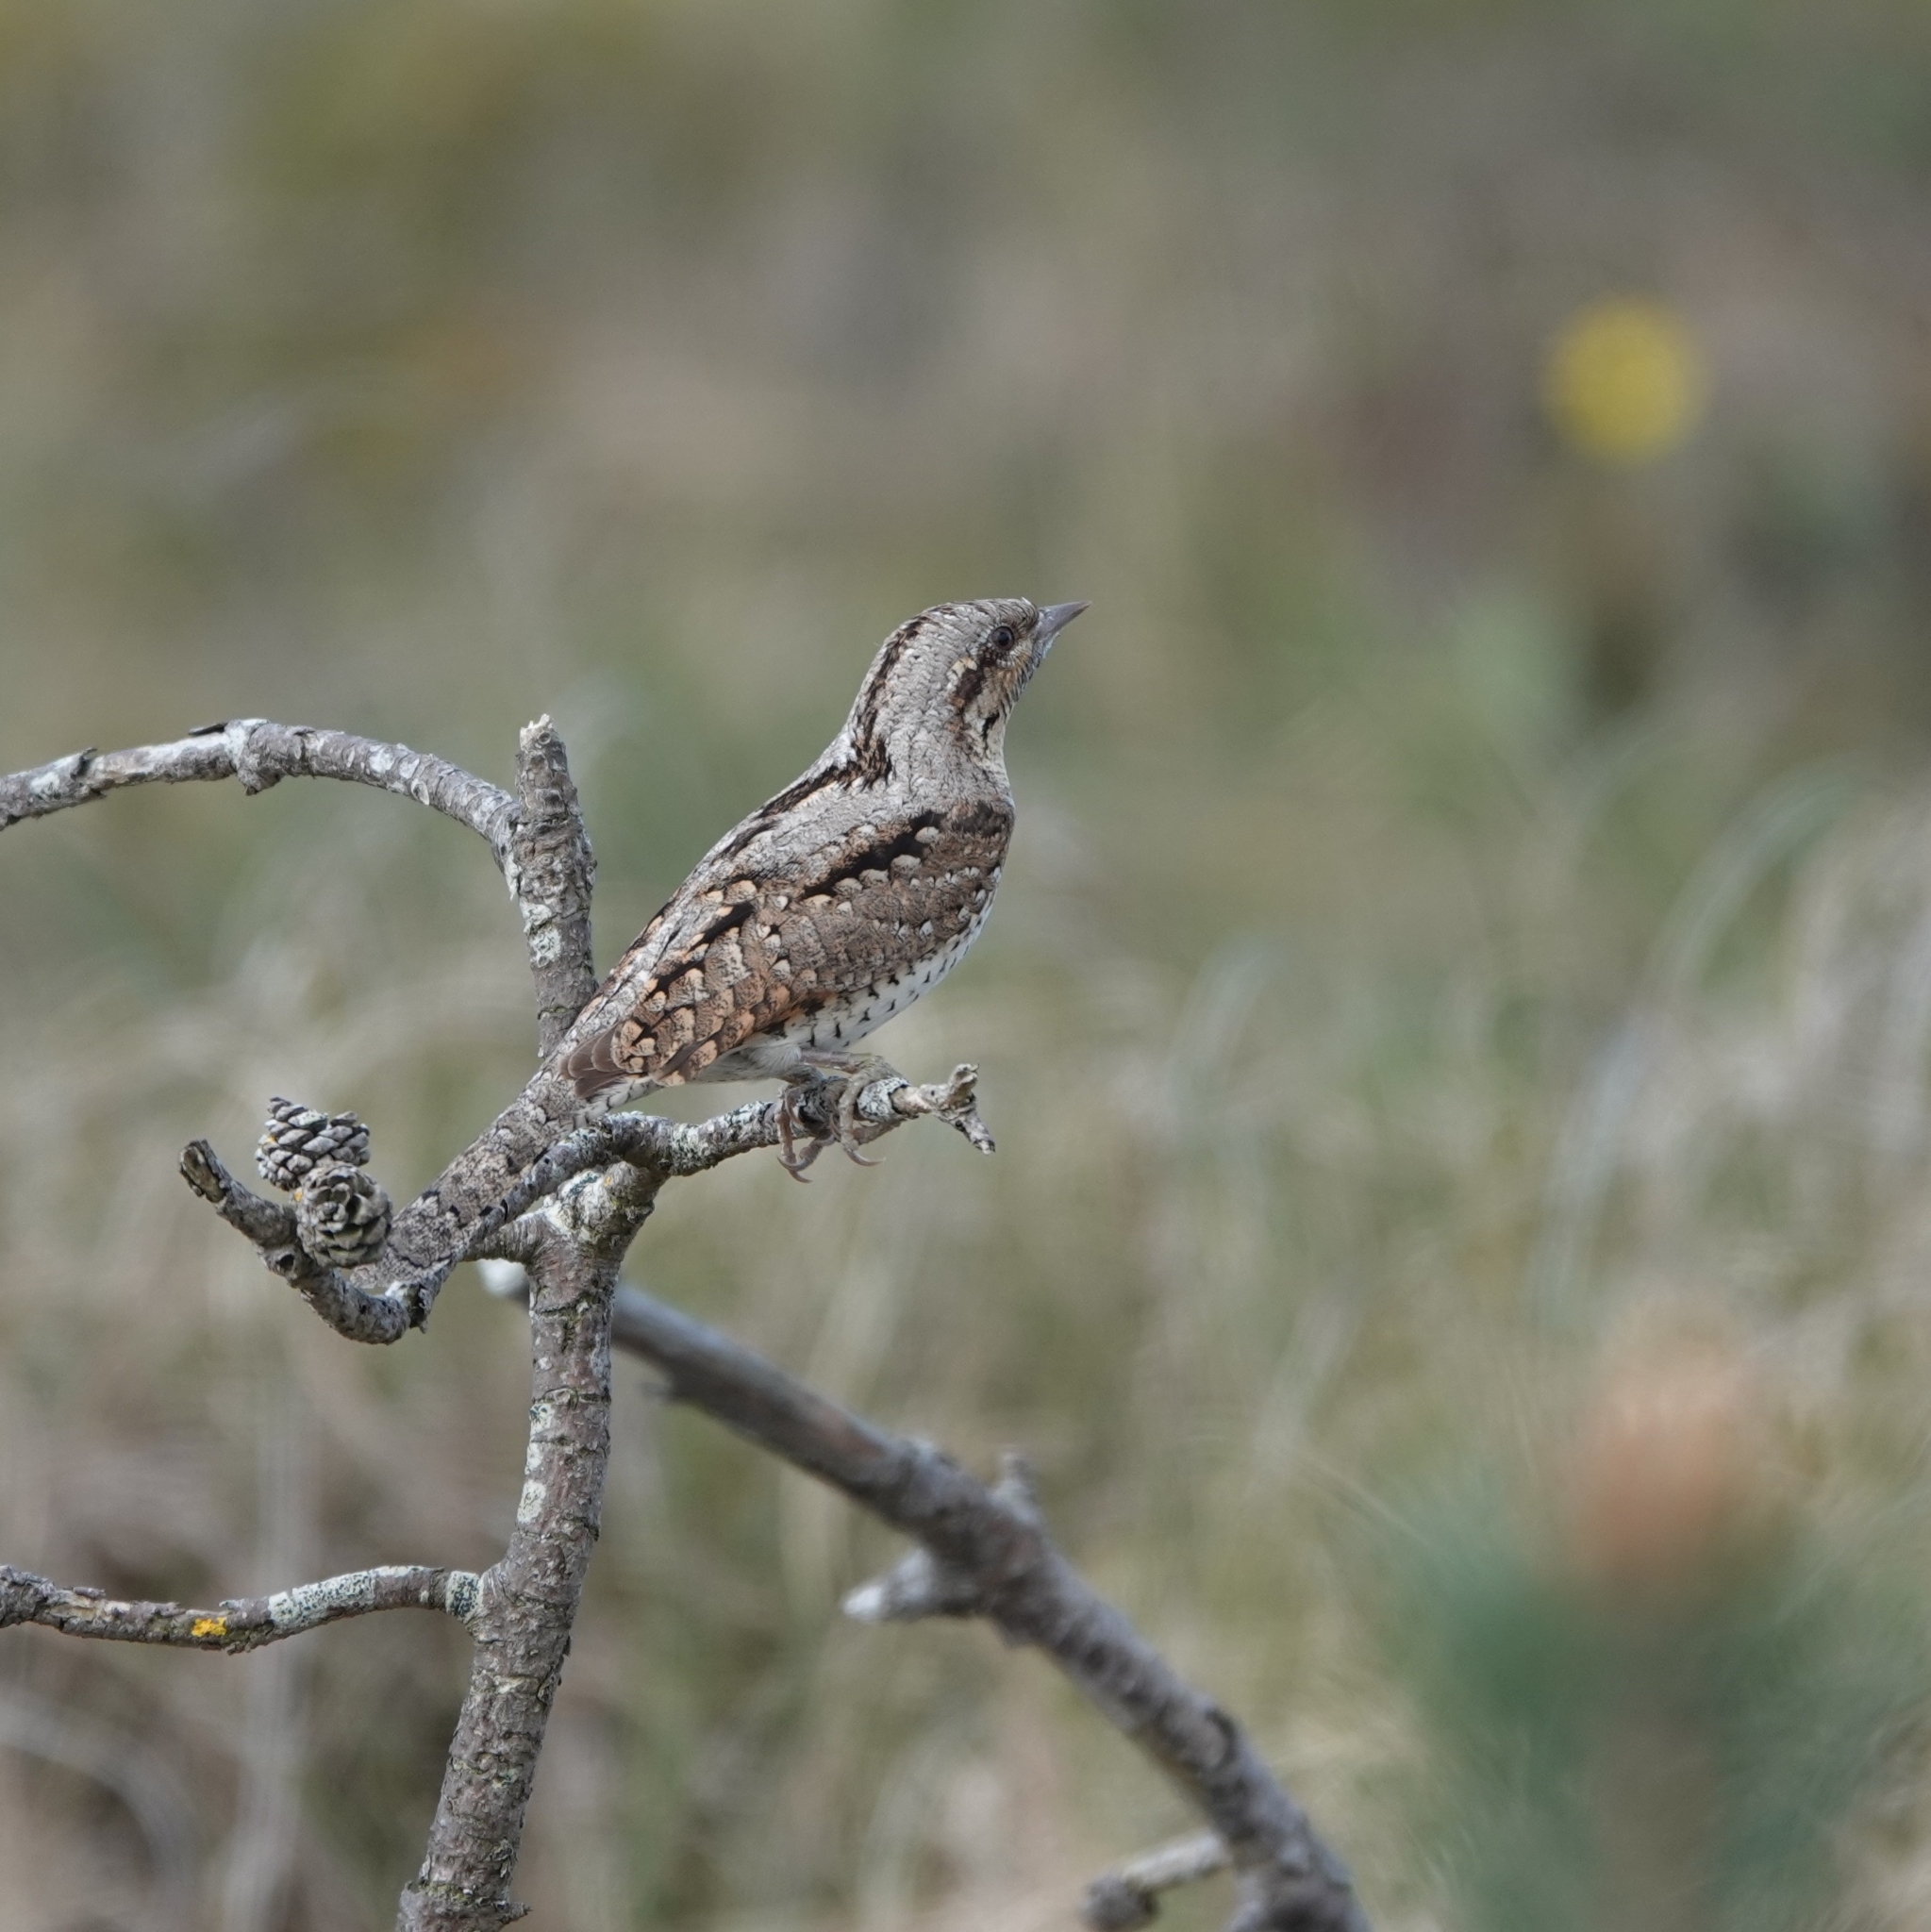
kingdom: Animalia
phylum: Chordata
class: Aves
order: Piciformes
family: Picidae
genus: Jynx
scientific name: Jynx torquilla
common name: Eurasian wryneck
